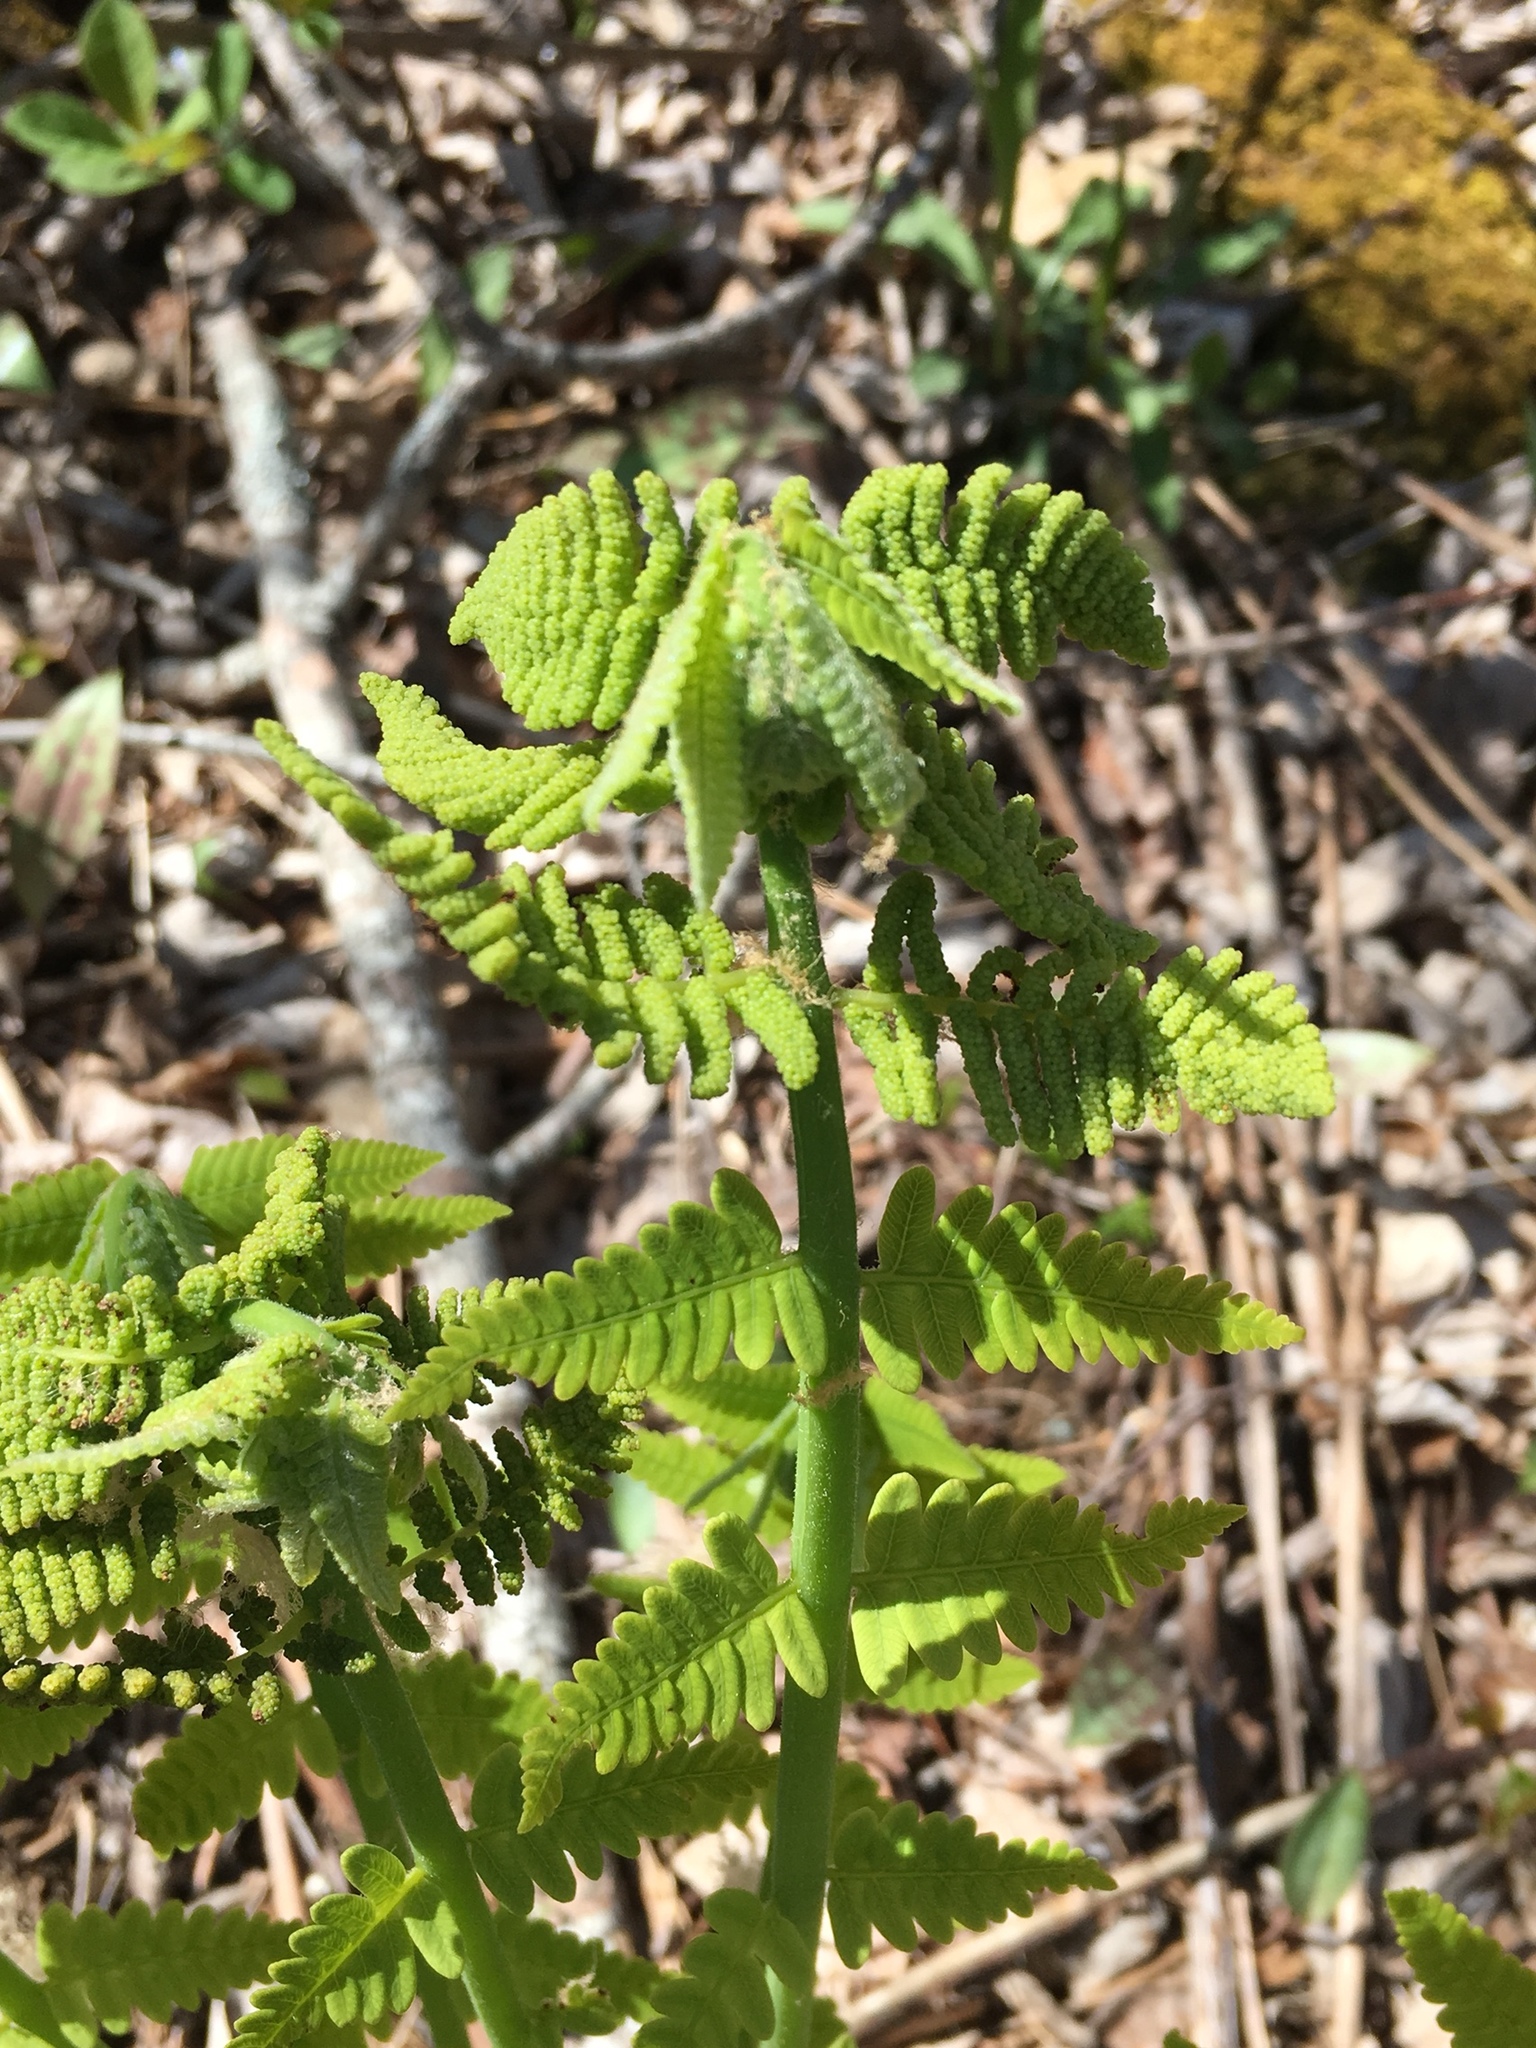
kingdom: Plantae
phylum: Tracheophyta
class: Polypodiopsida
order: Osmundales
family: Osmundaceae
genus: Claytosmunda
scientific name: Claytosmunda claytoniana
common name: Clayton's fern
